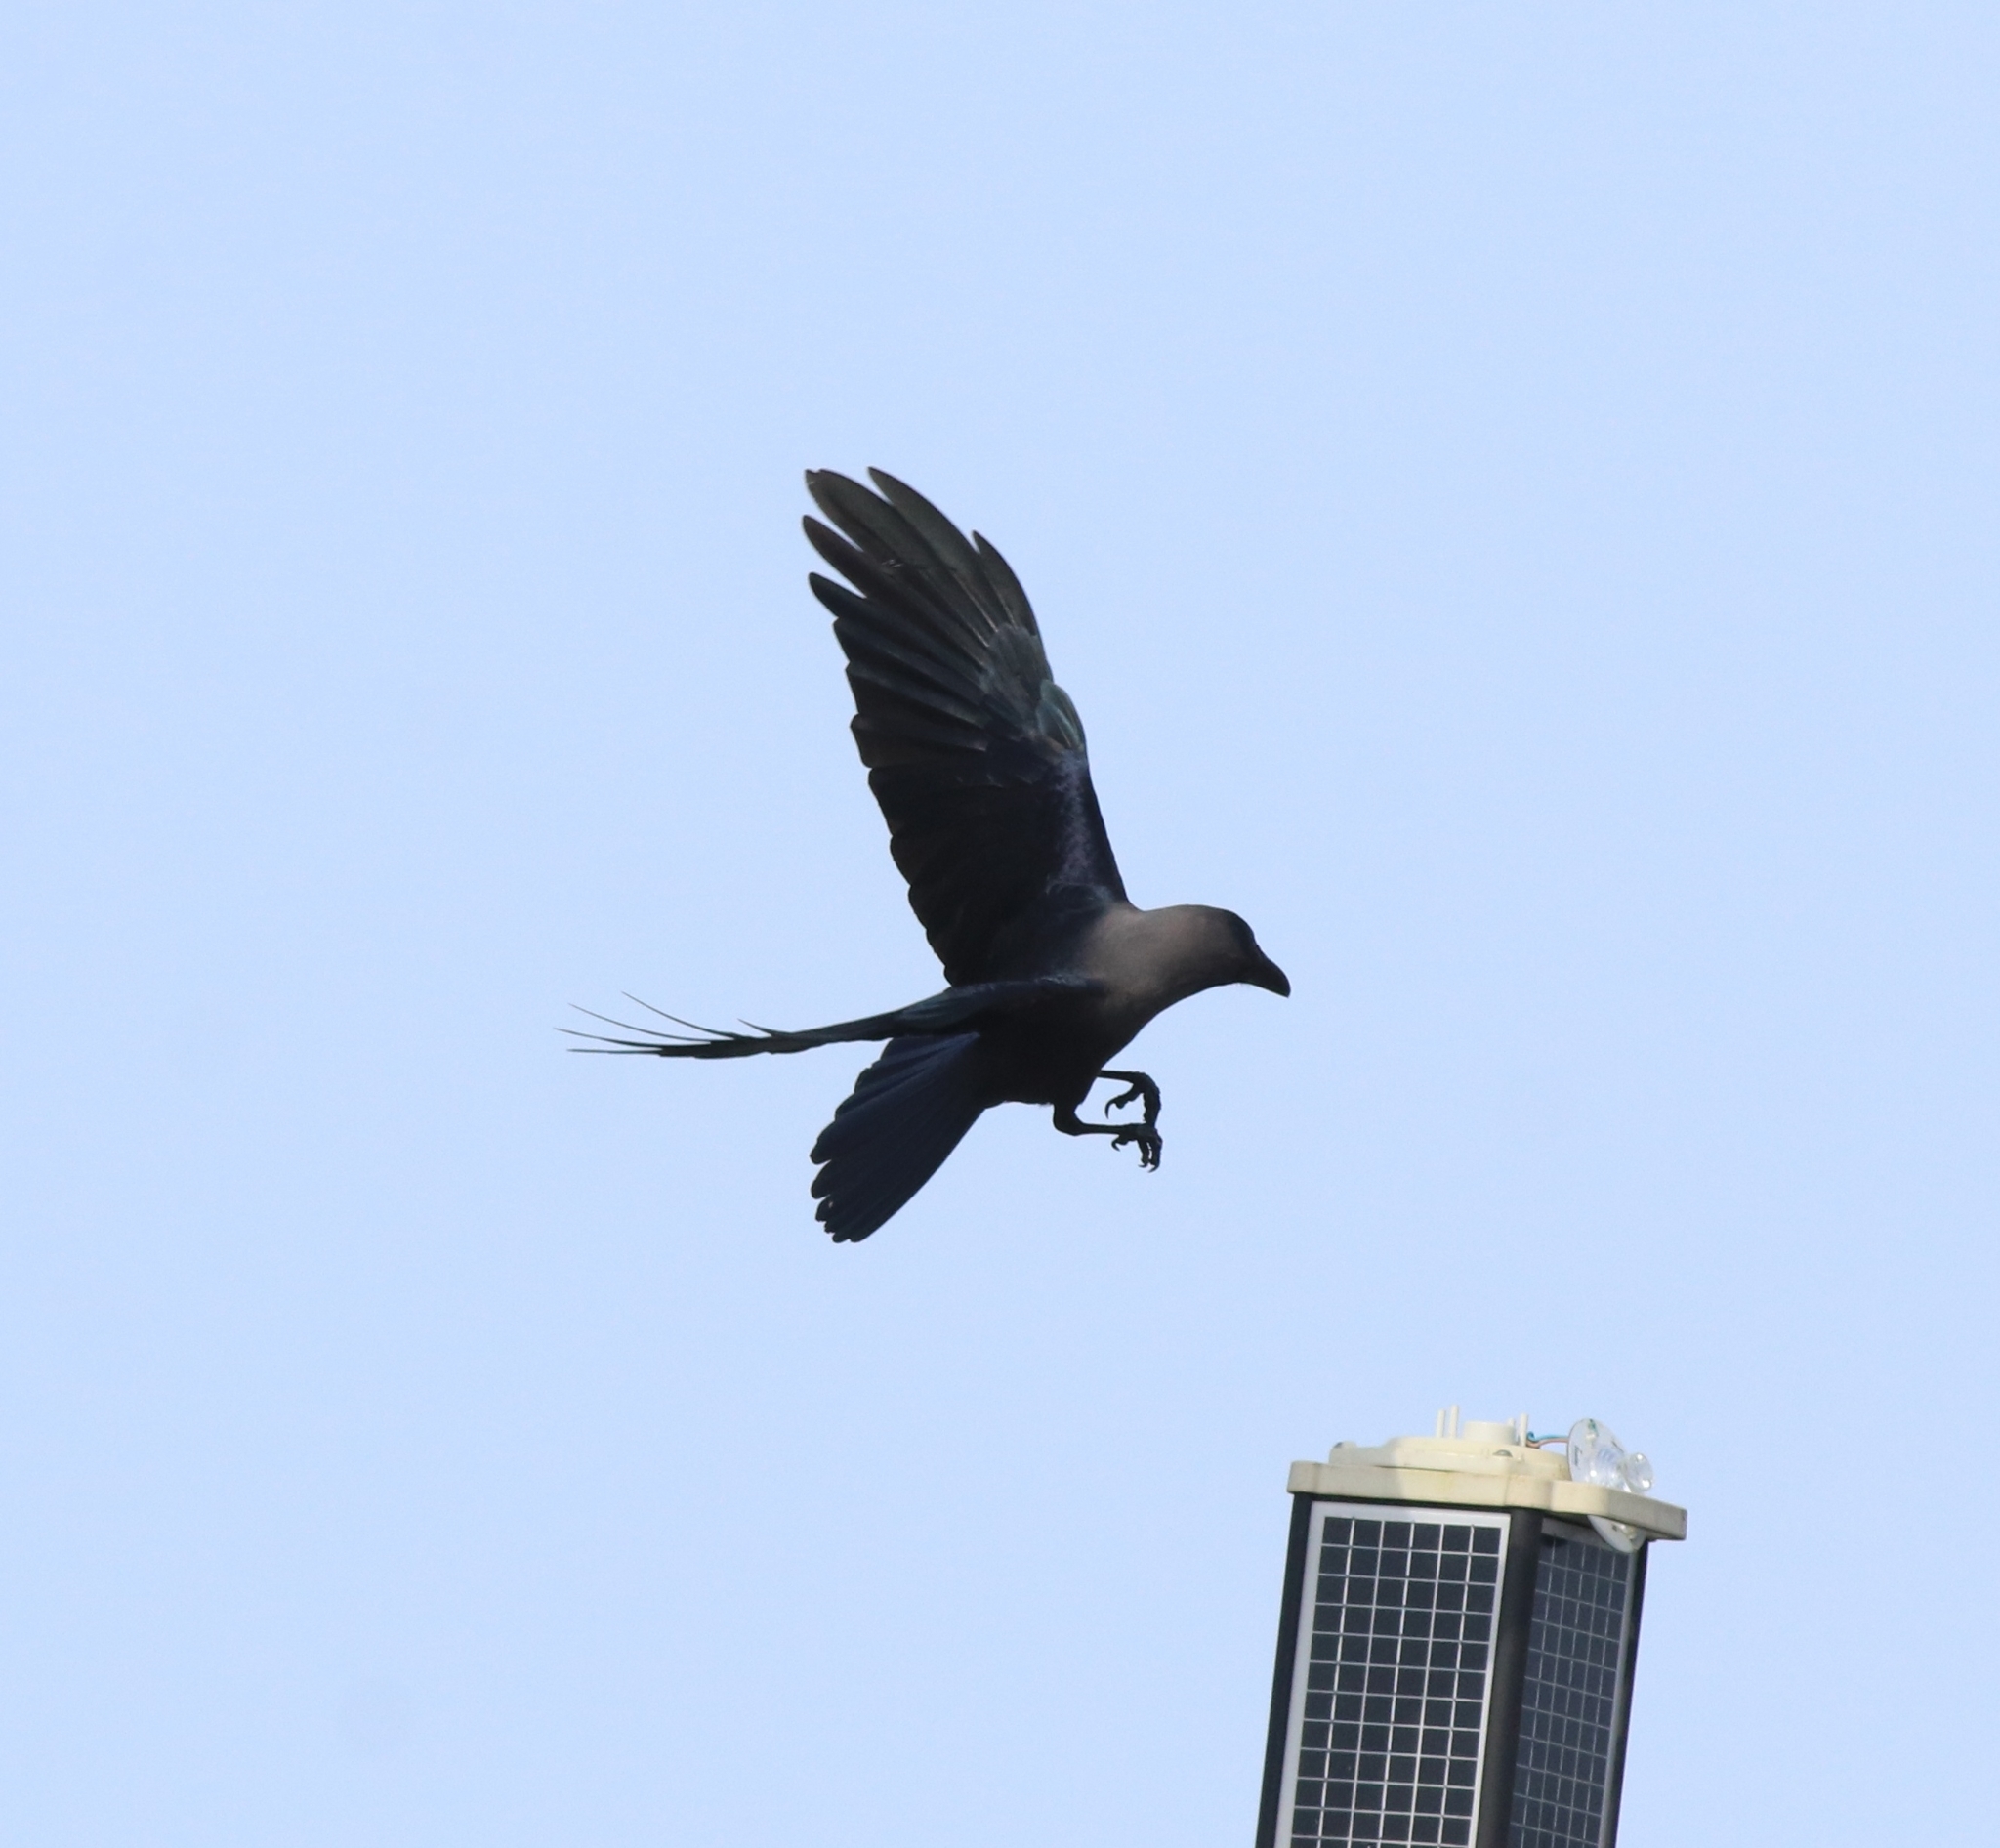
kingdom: Animalia
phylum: Chordata
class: Aves
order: Passeriformes
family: Corvidae
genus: Corvus
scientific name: Corvus splendens
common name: House crow
